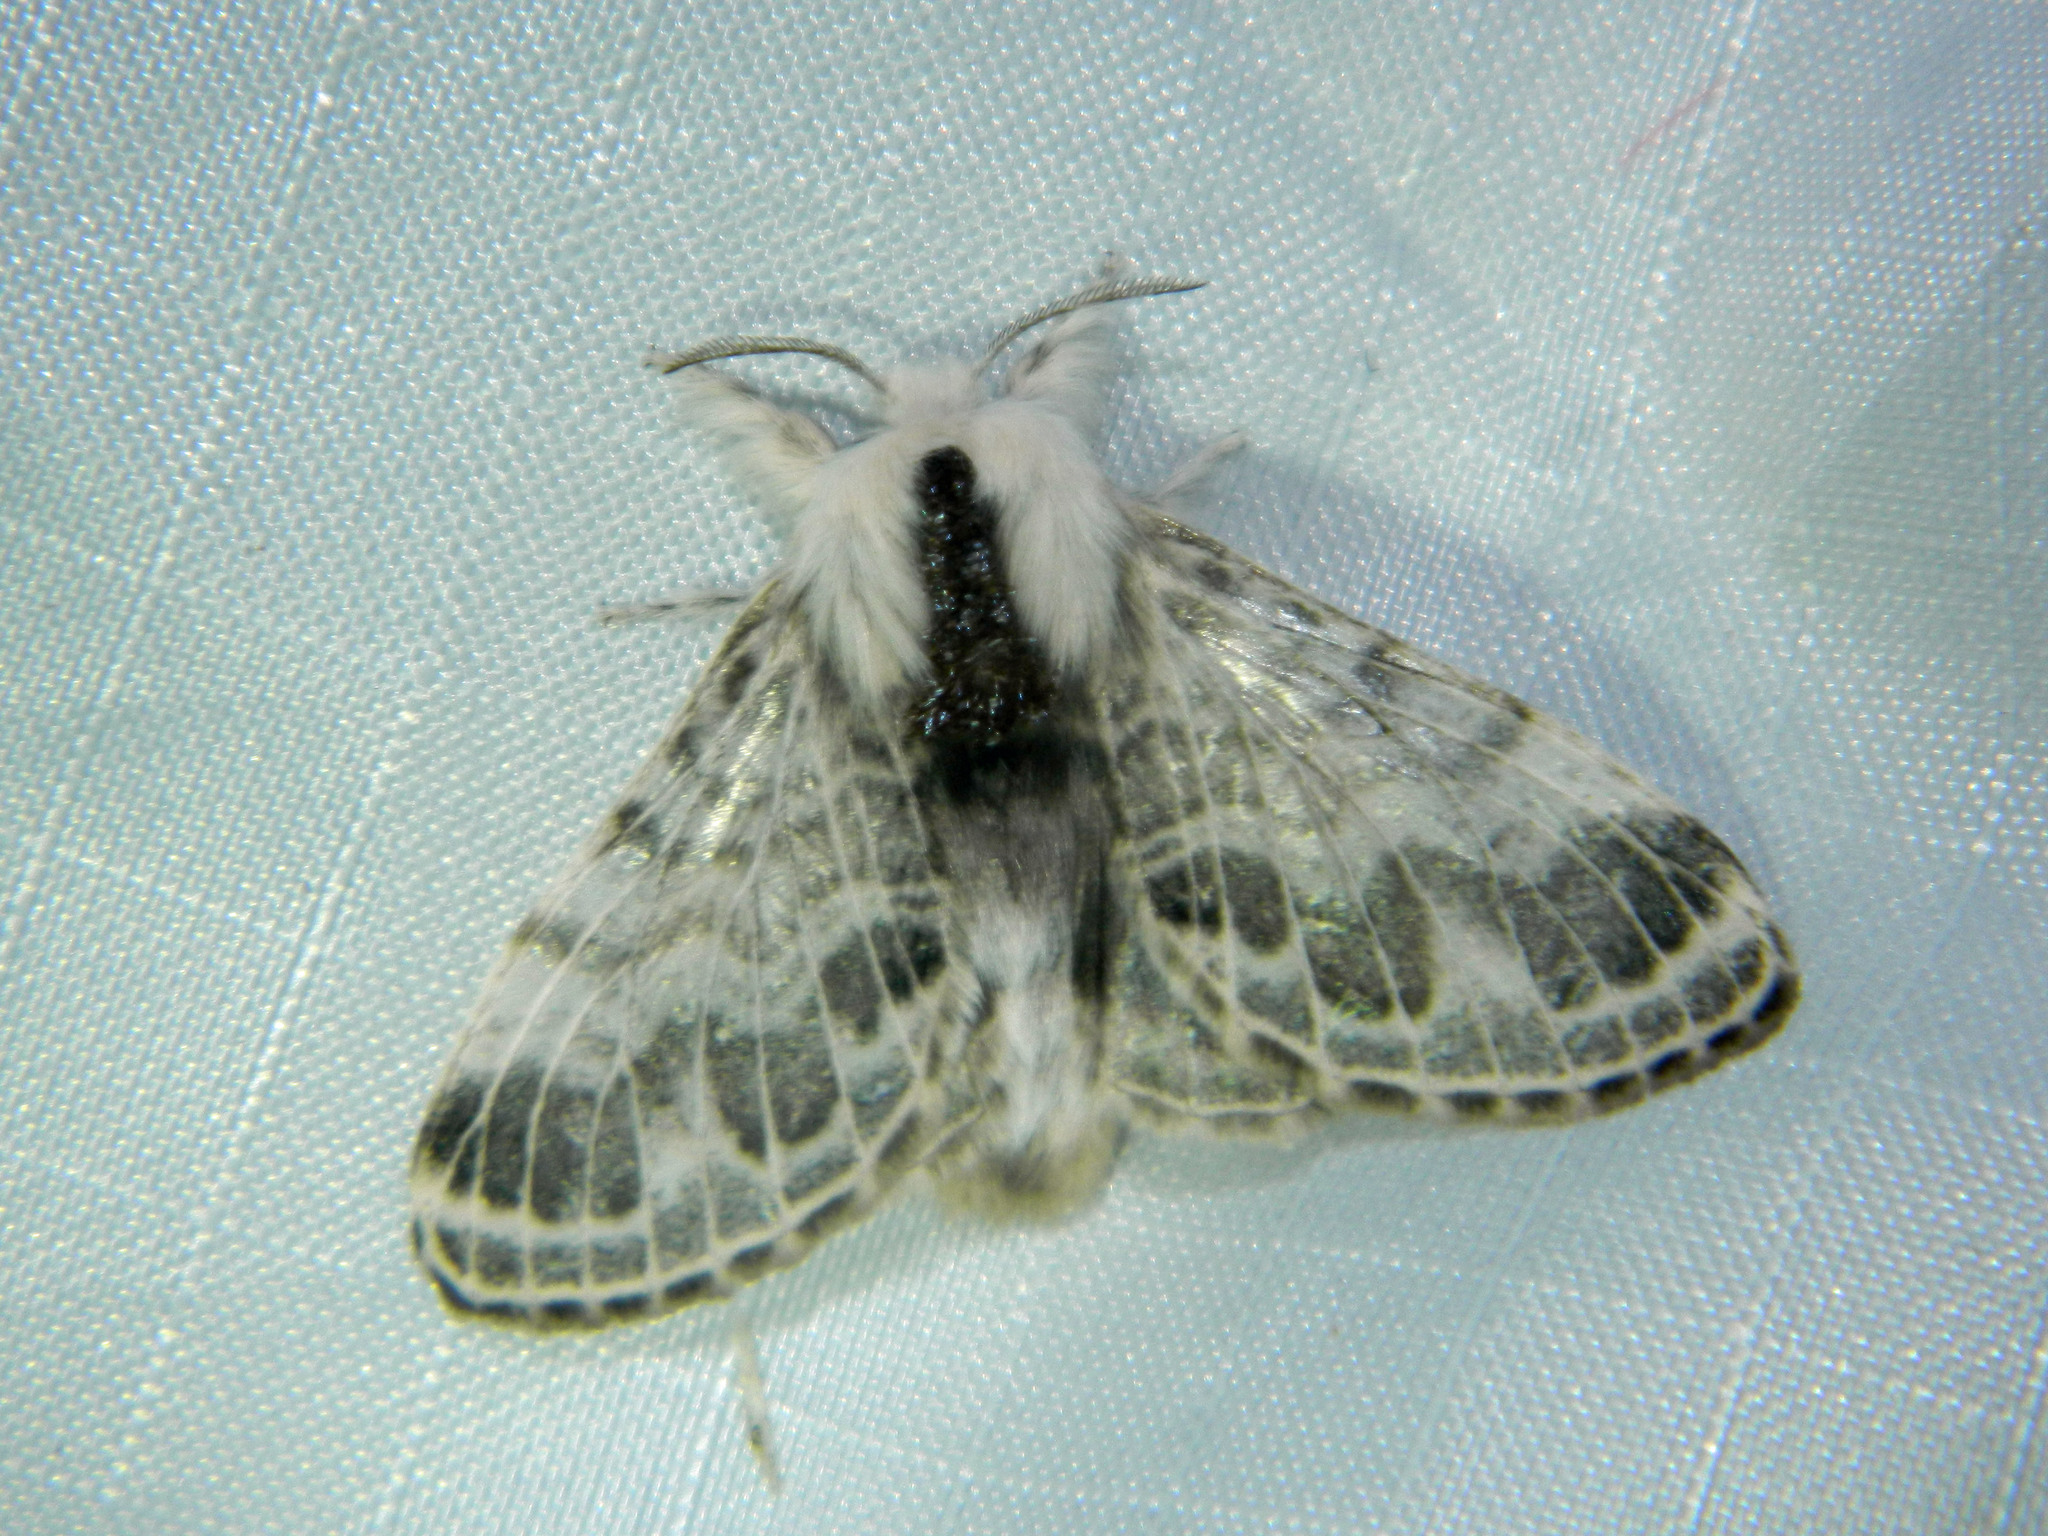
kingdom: Animalia
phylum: Arthropoda
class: Insecta
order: Lepidoptera
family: Lasiocampidae
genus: Tolype
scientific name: Tolype laricis
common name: Larch tolype moth
